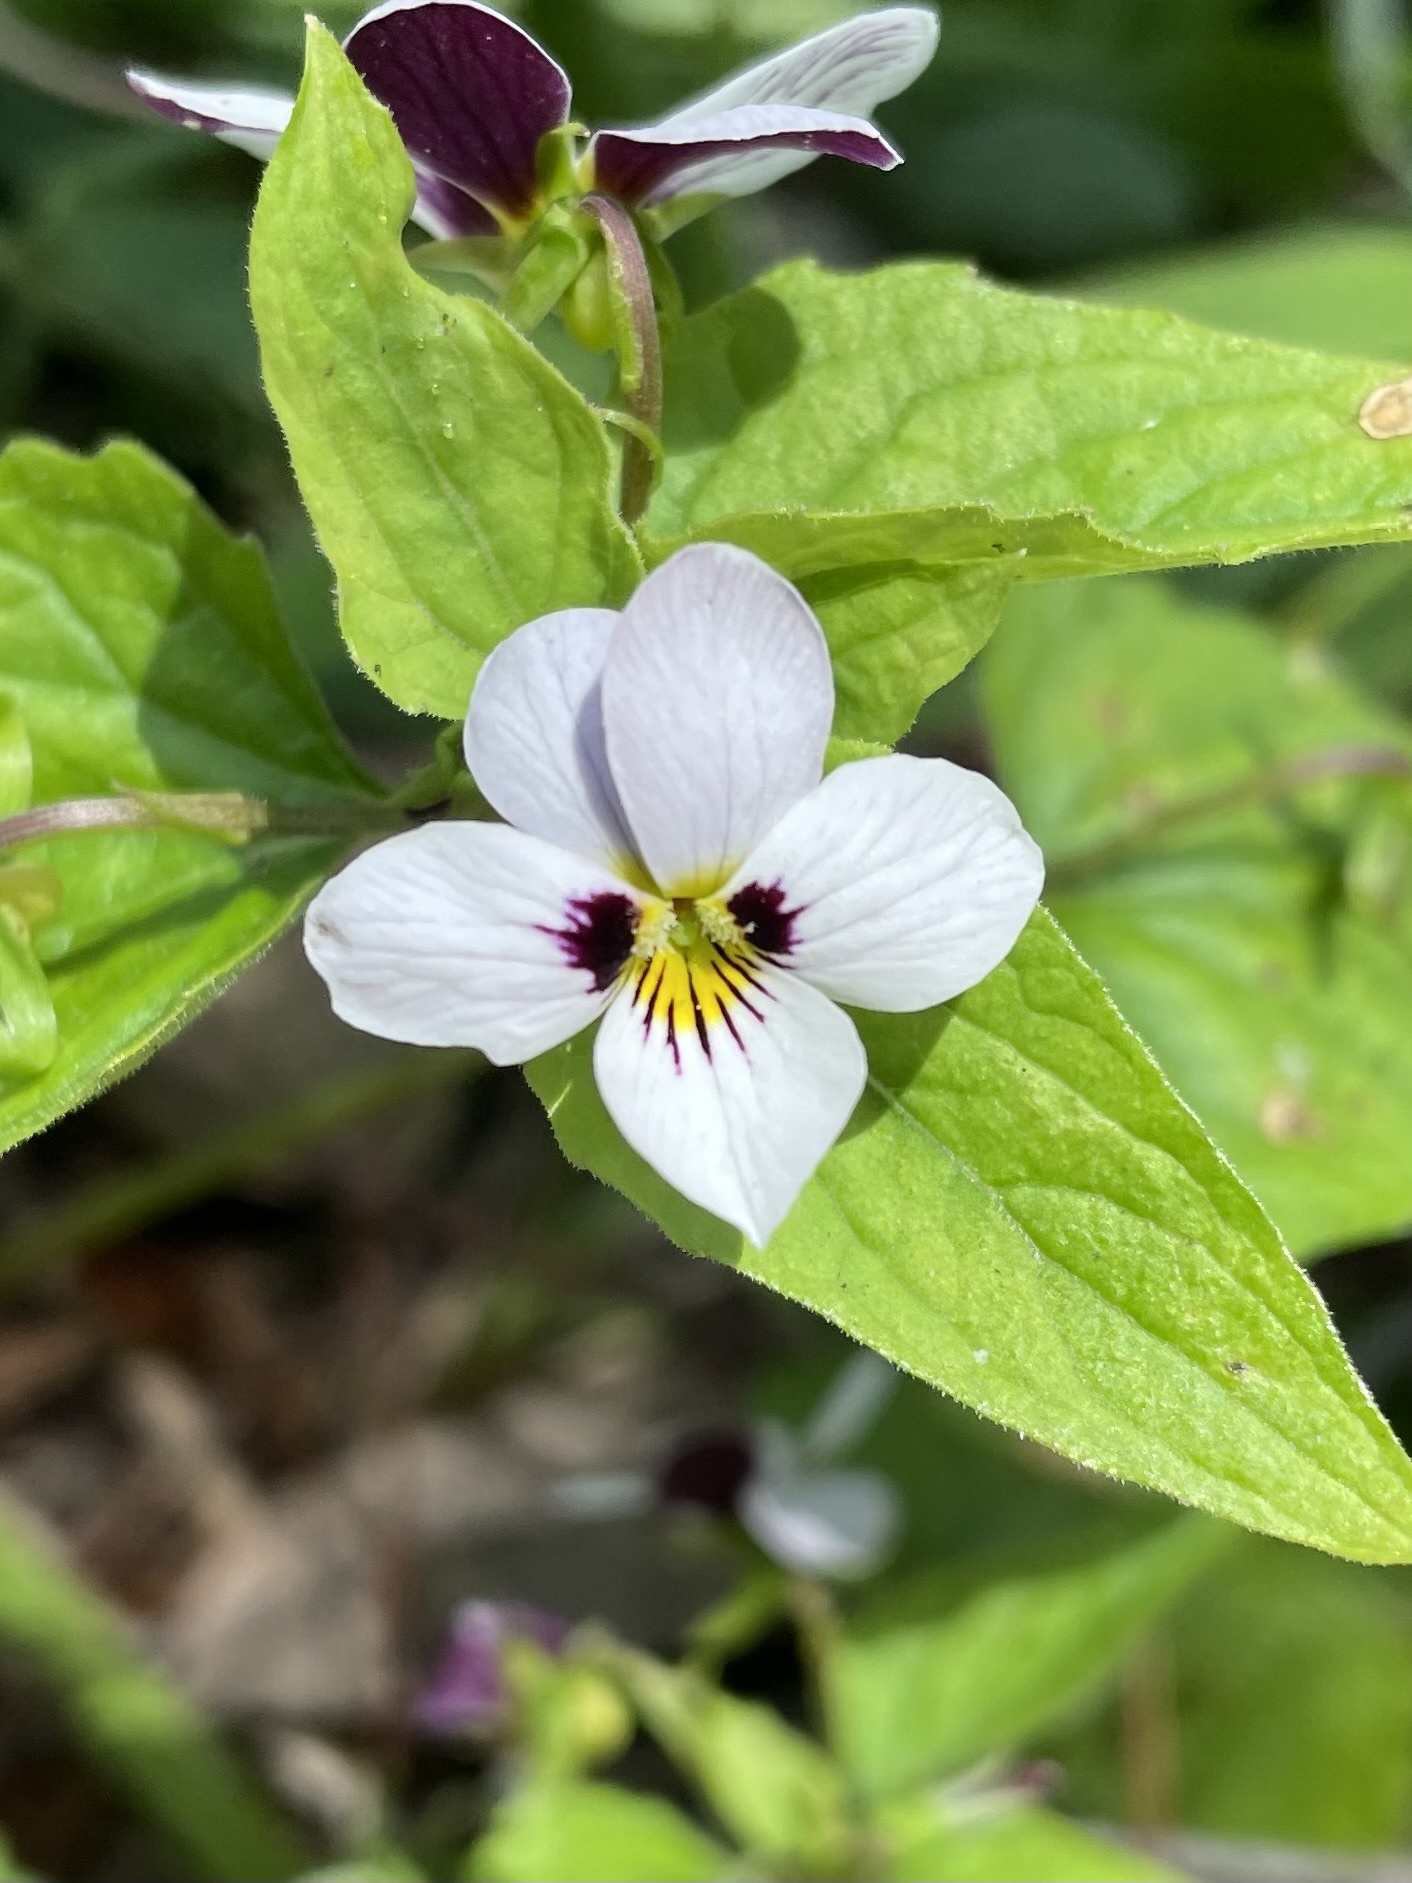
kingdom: Plantae
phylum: Tracheophyta
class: Magnoliopsida
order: Malpighiales
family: Violaceae
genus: Viola
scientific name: Viola ocellata
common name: Western heart's ease
